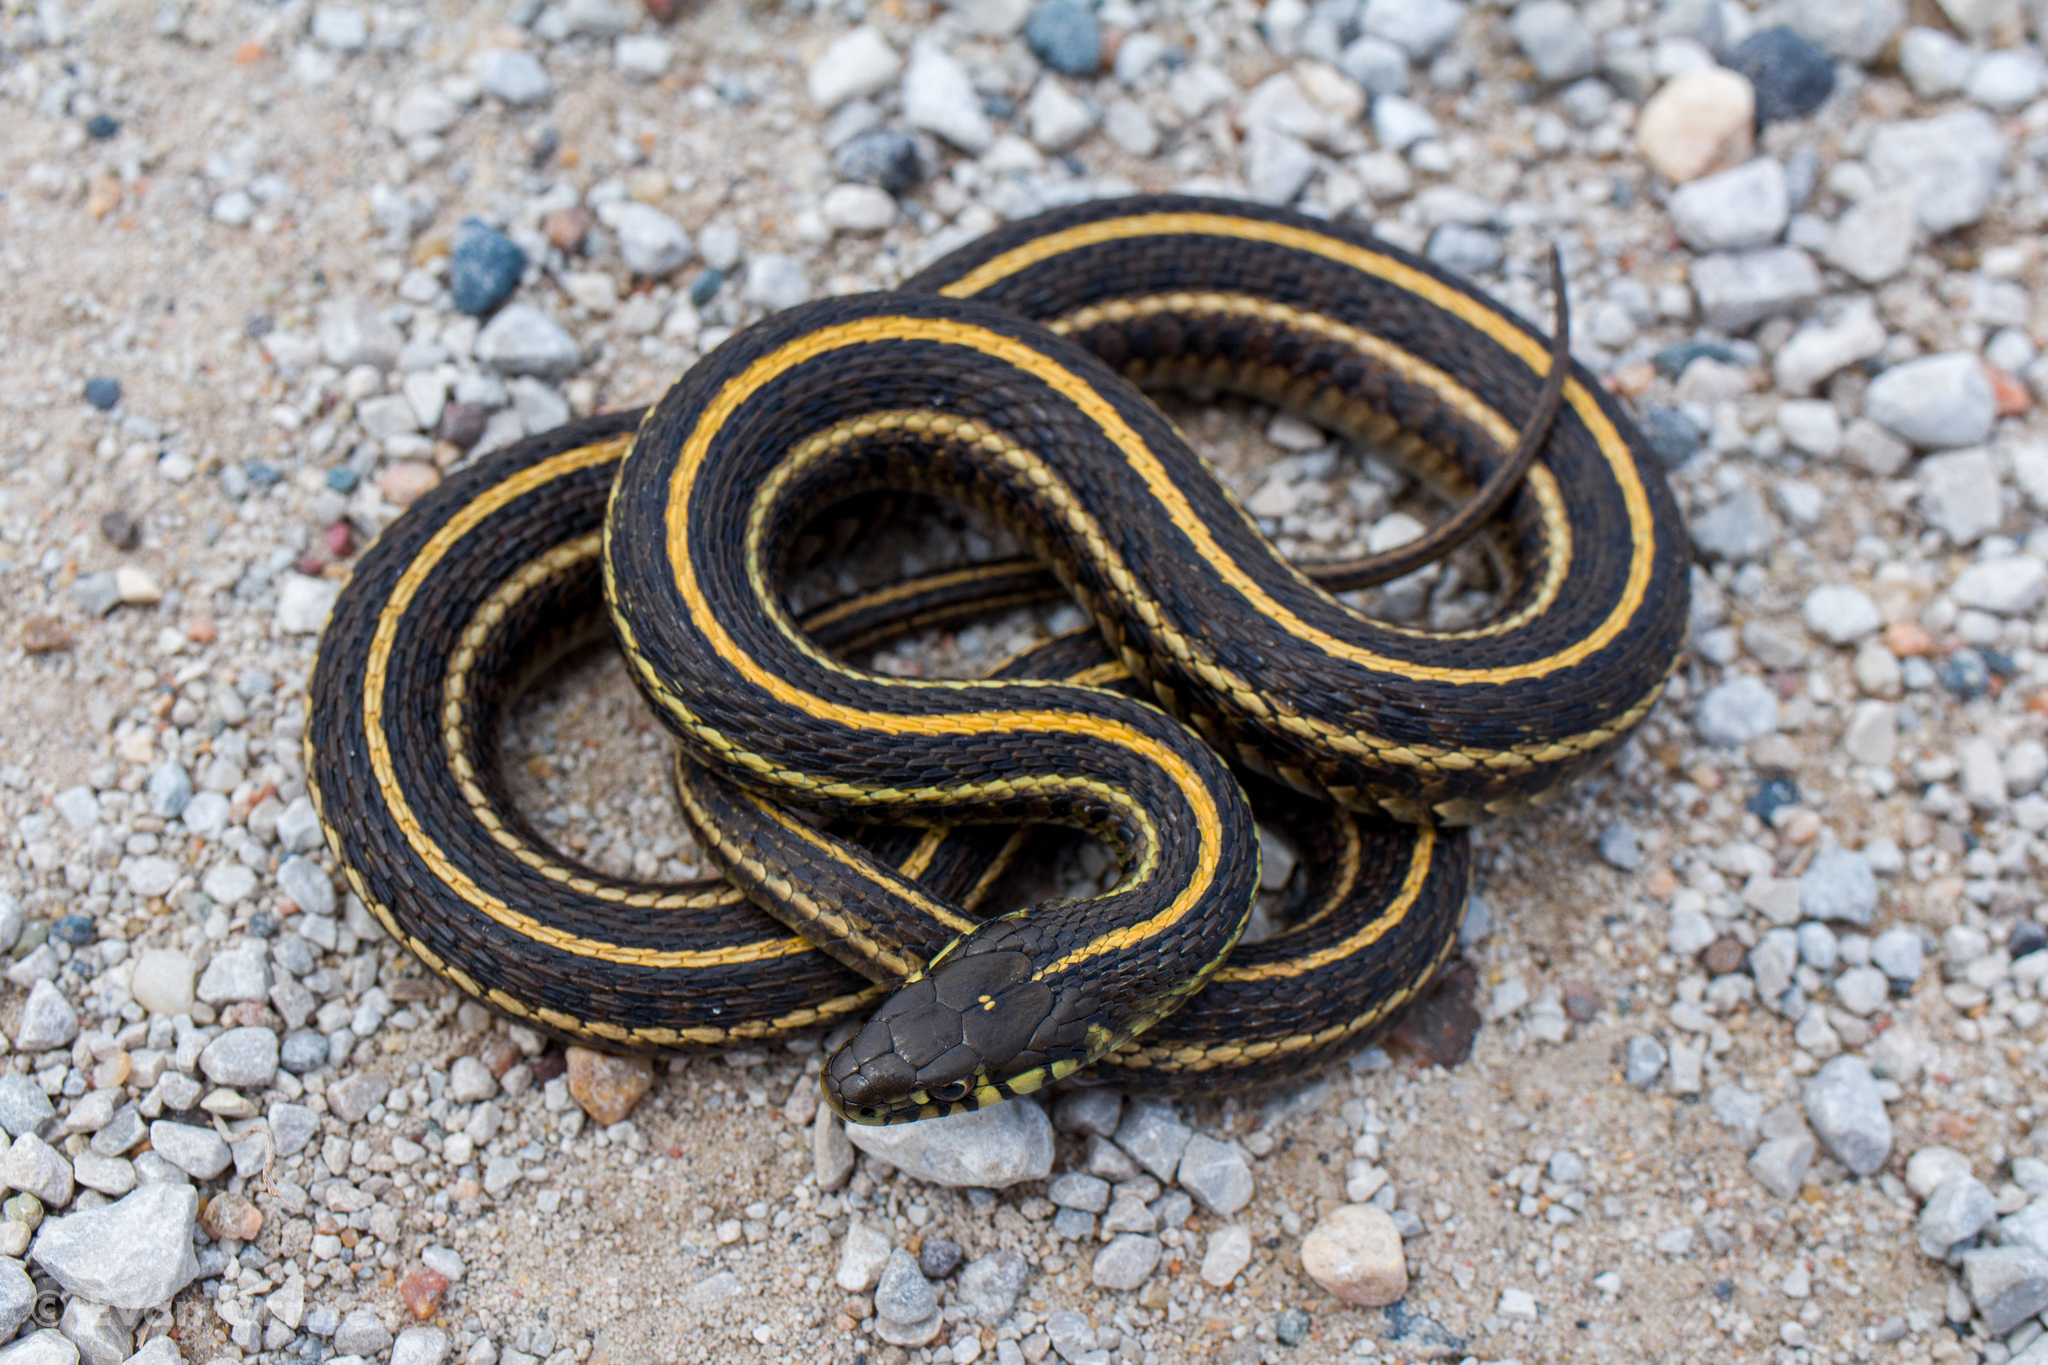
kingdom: Animalia
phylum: Chordata
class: Squamata
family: Colubridae
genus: Thamnophis
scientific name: Thamnophis radix
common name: Plains garter snake
